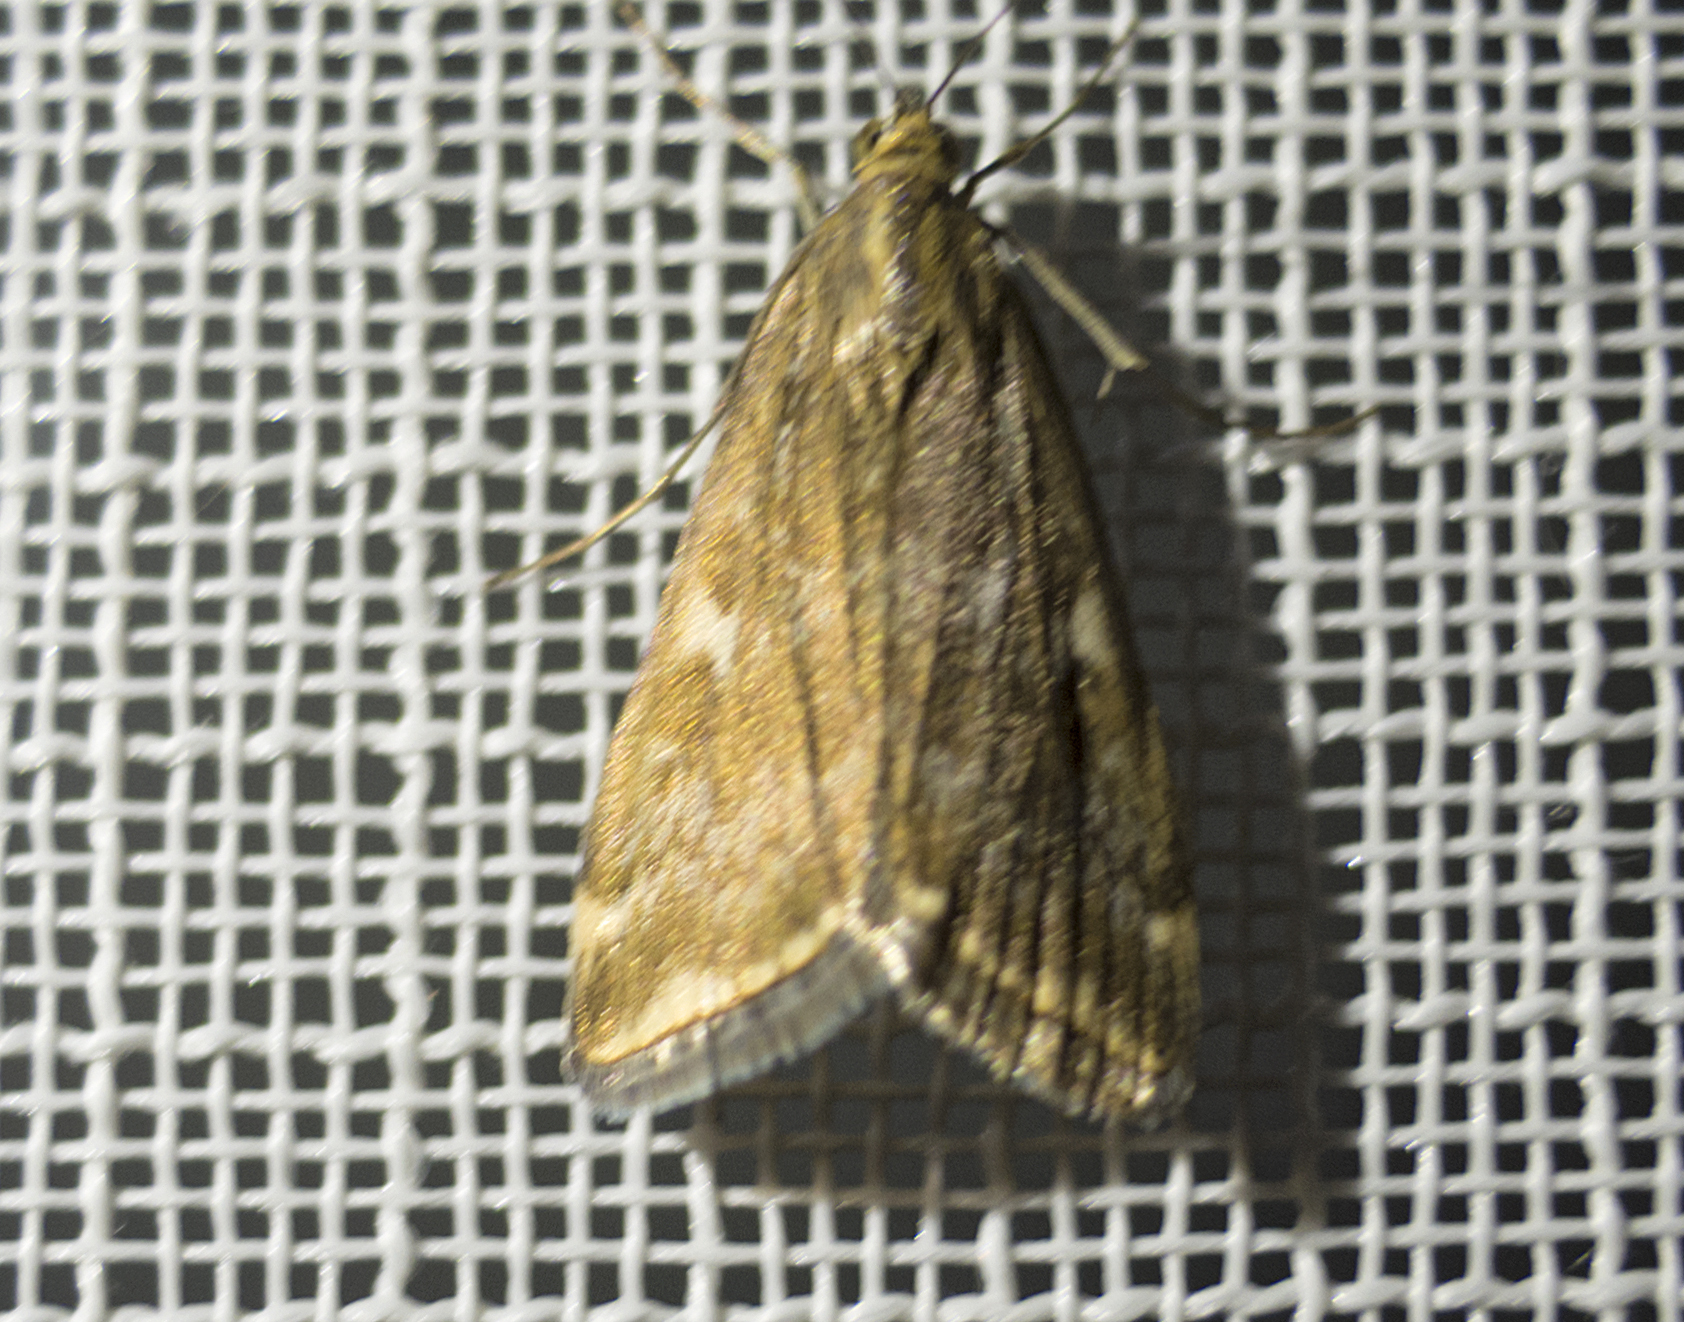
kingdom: Animalia
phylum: Arthropoda
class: Insecta
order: Lepidoptera
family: Crambidae
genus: Loxostege
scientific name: Loxostege sticticalis
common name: Crambid moth
